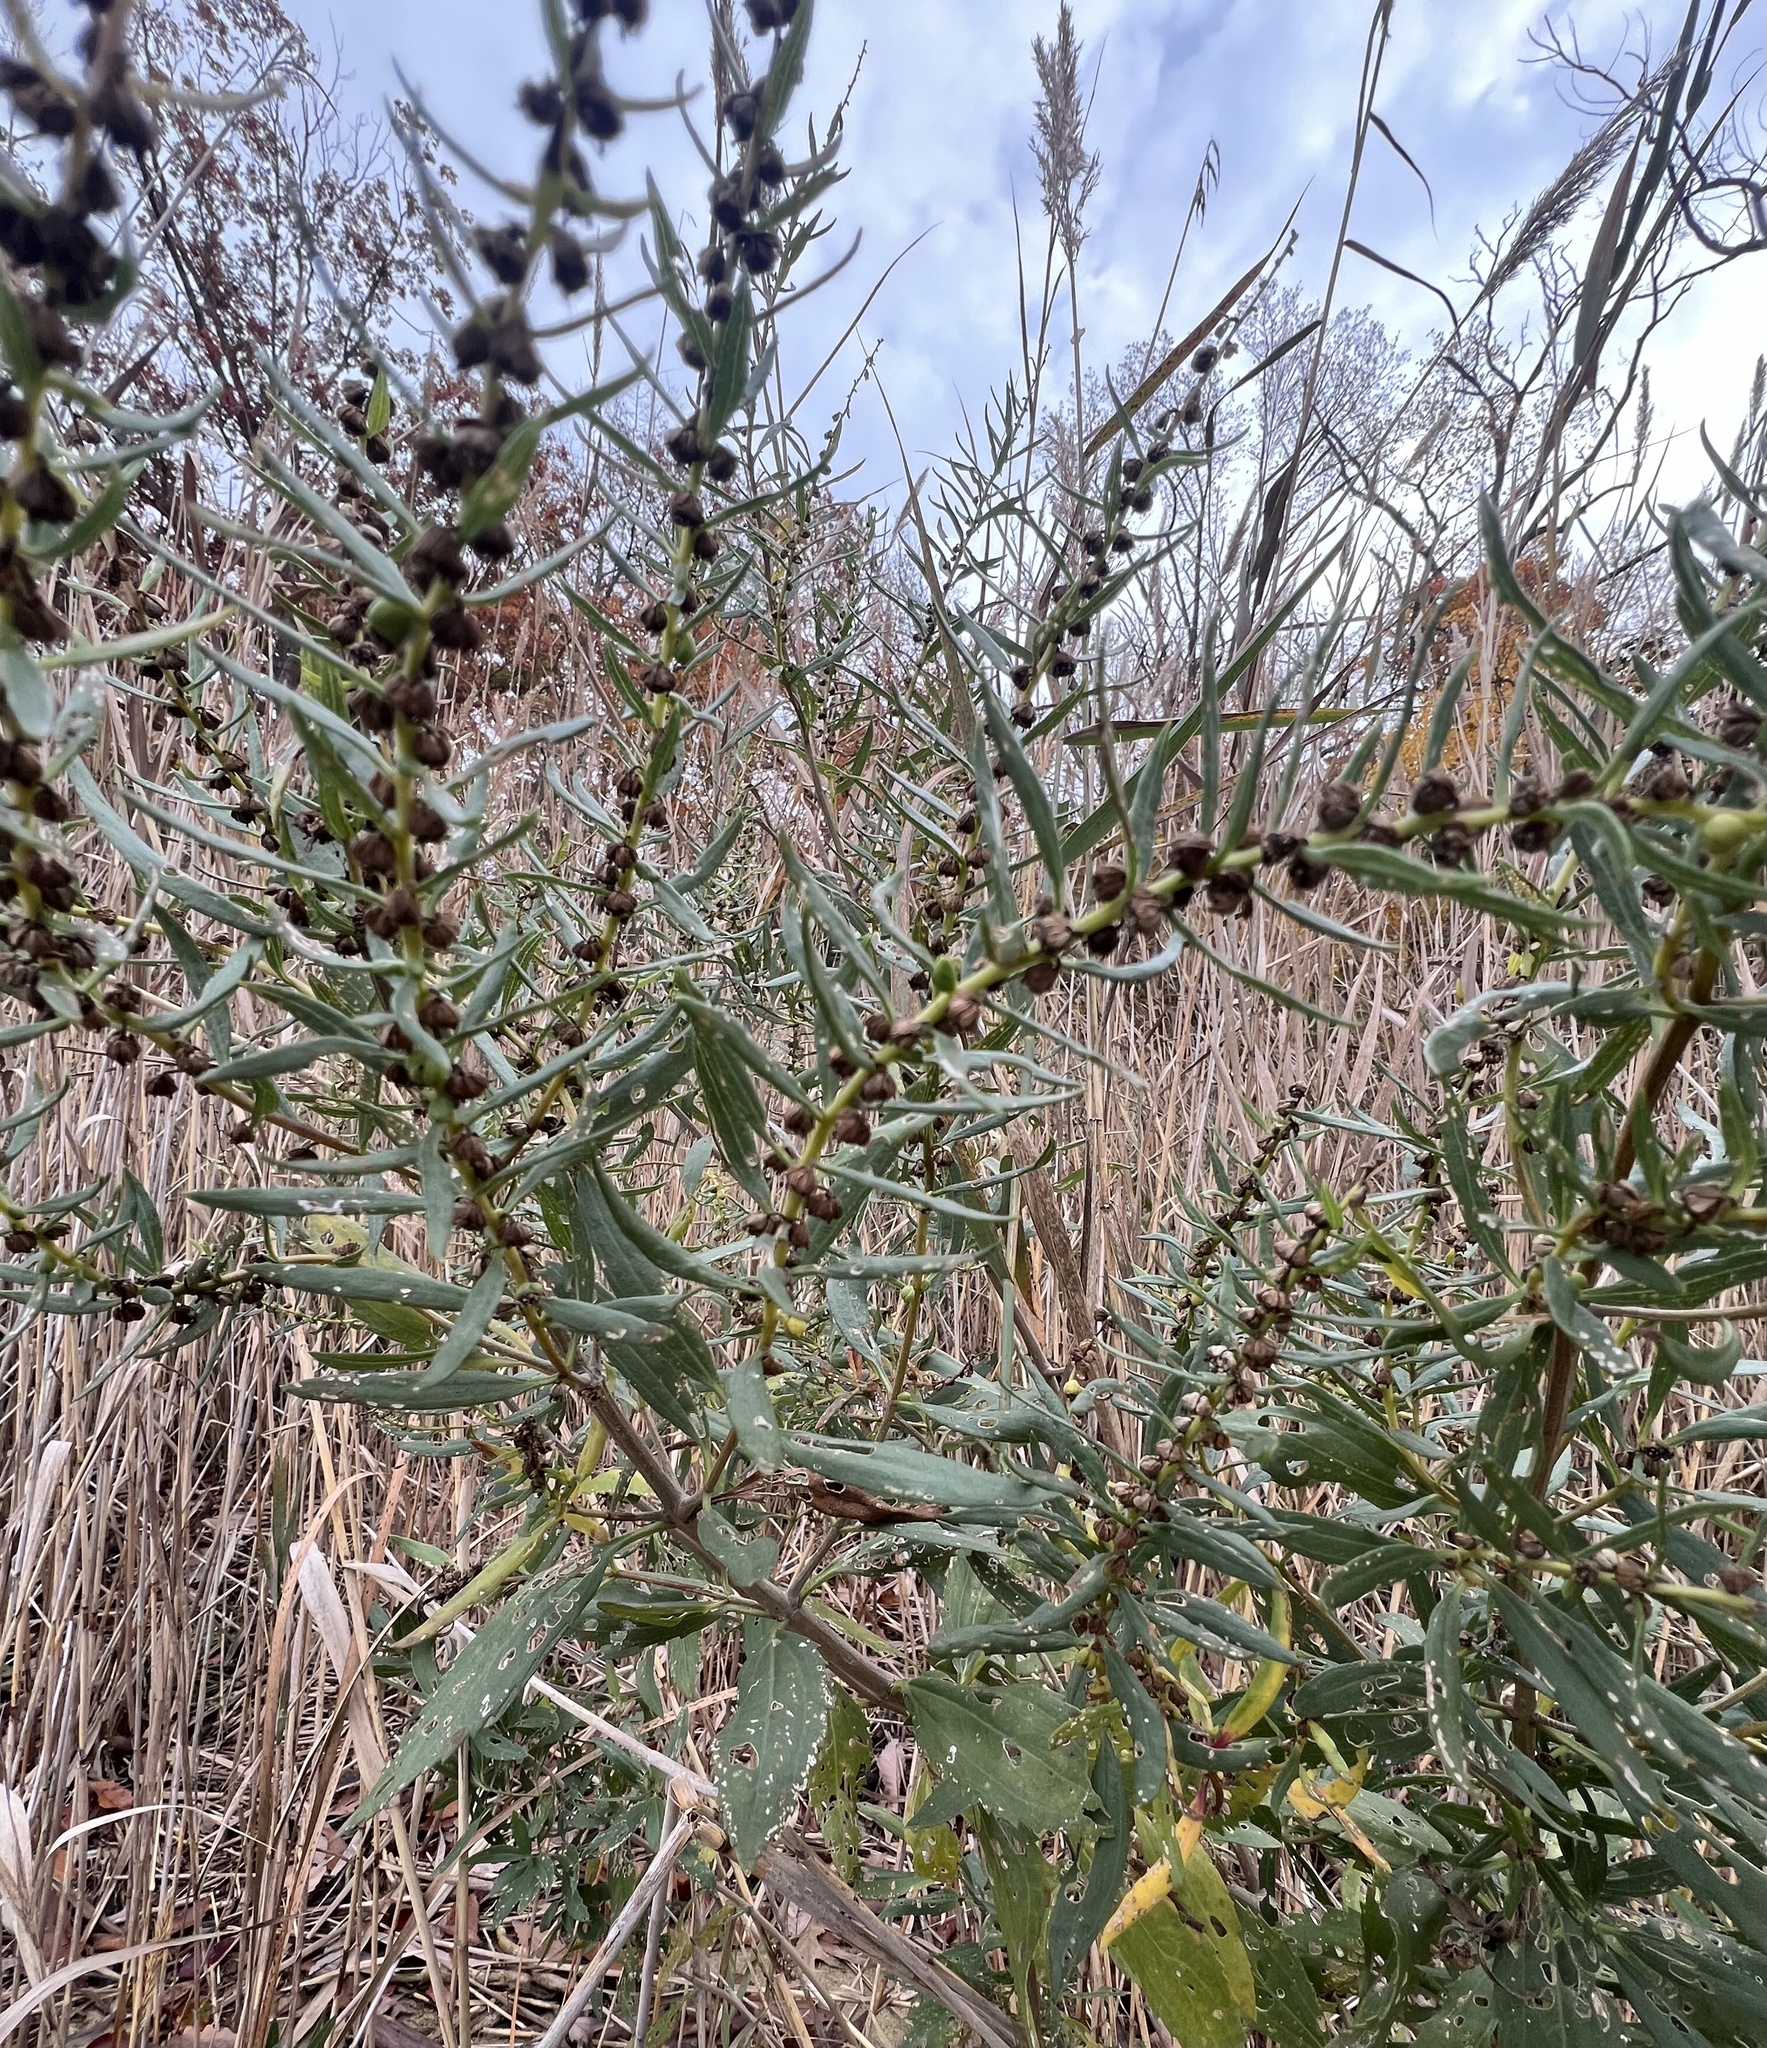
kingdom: Plantae
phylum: Tracheophyta
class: Magnoliopsida
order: Asterales
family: Asteraceae
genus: Iva
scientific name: Iva frutescens
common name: Big-leaved marsh-elder
